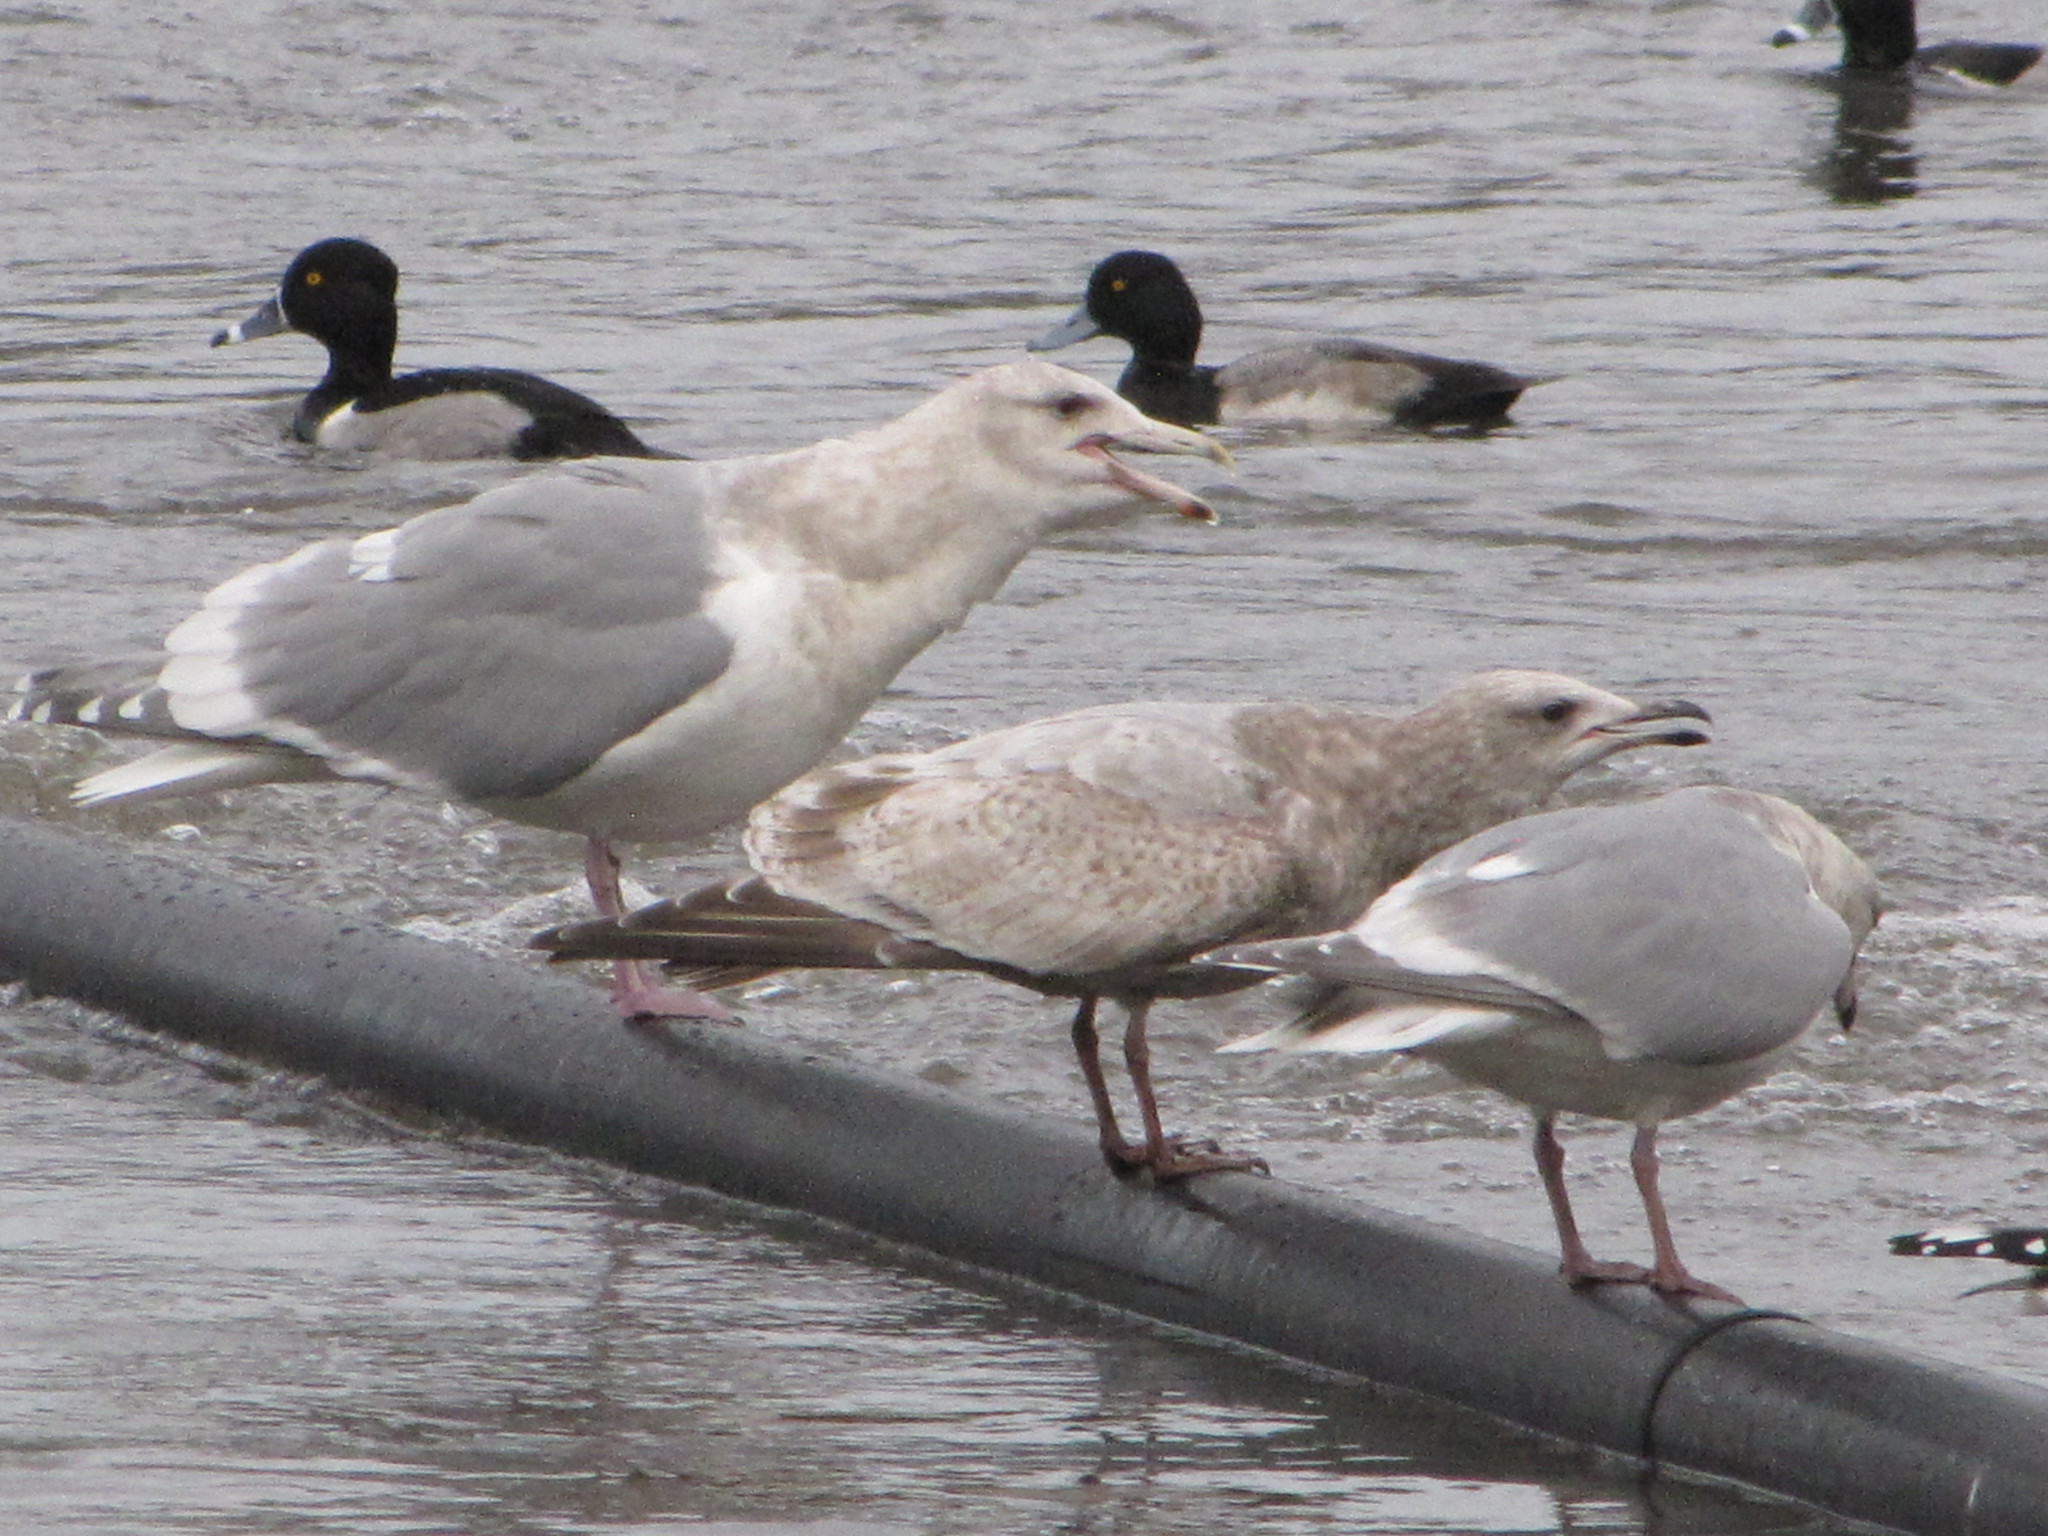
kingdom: Animalia
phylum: Chordata
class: Aves
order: Charadriiformes
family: Laridae
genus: Larus
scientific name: Larus glaucescens
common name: Glaucous-winged gull
